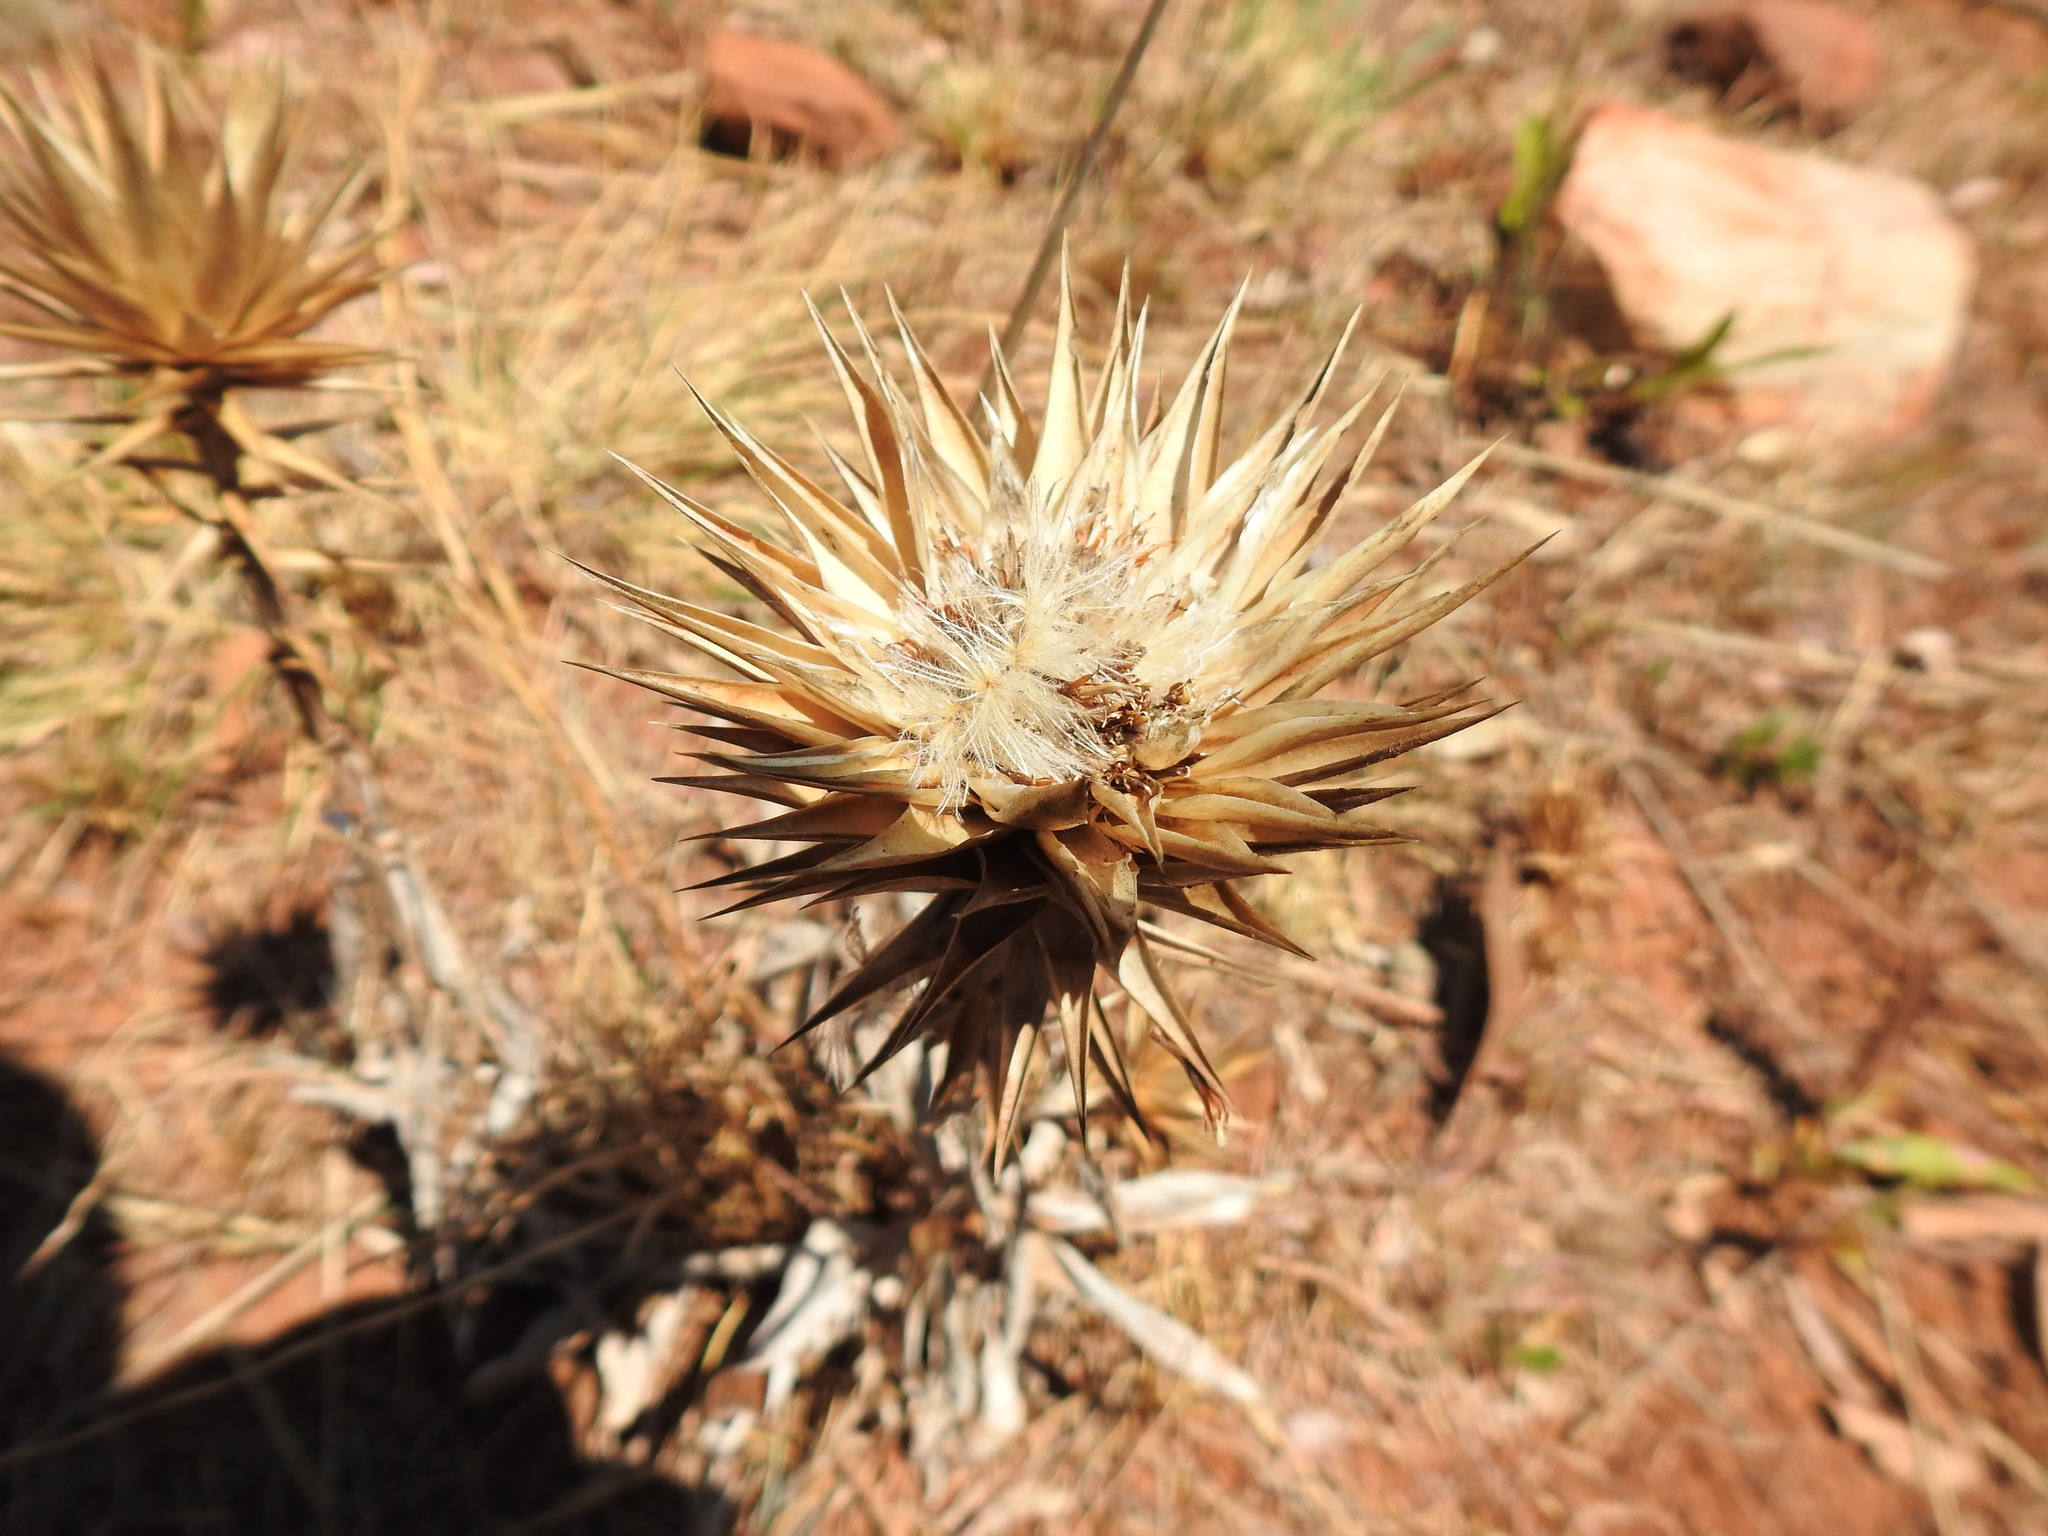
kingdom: Plantae
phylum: Tracheophyta
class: Magnoliopsida
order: Asterales
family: Asteraceae
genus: Macledium
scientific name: Macledium zeyheri
